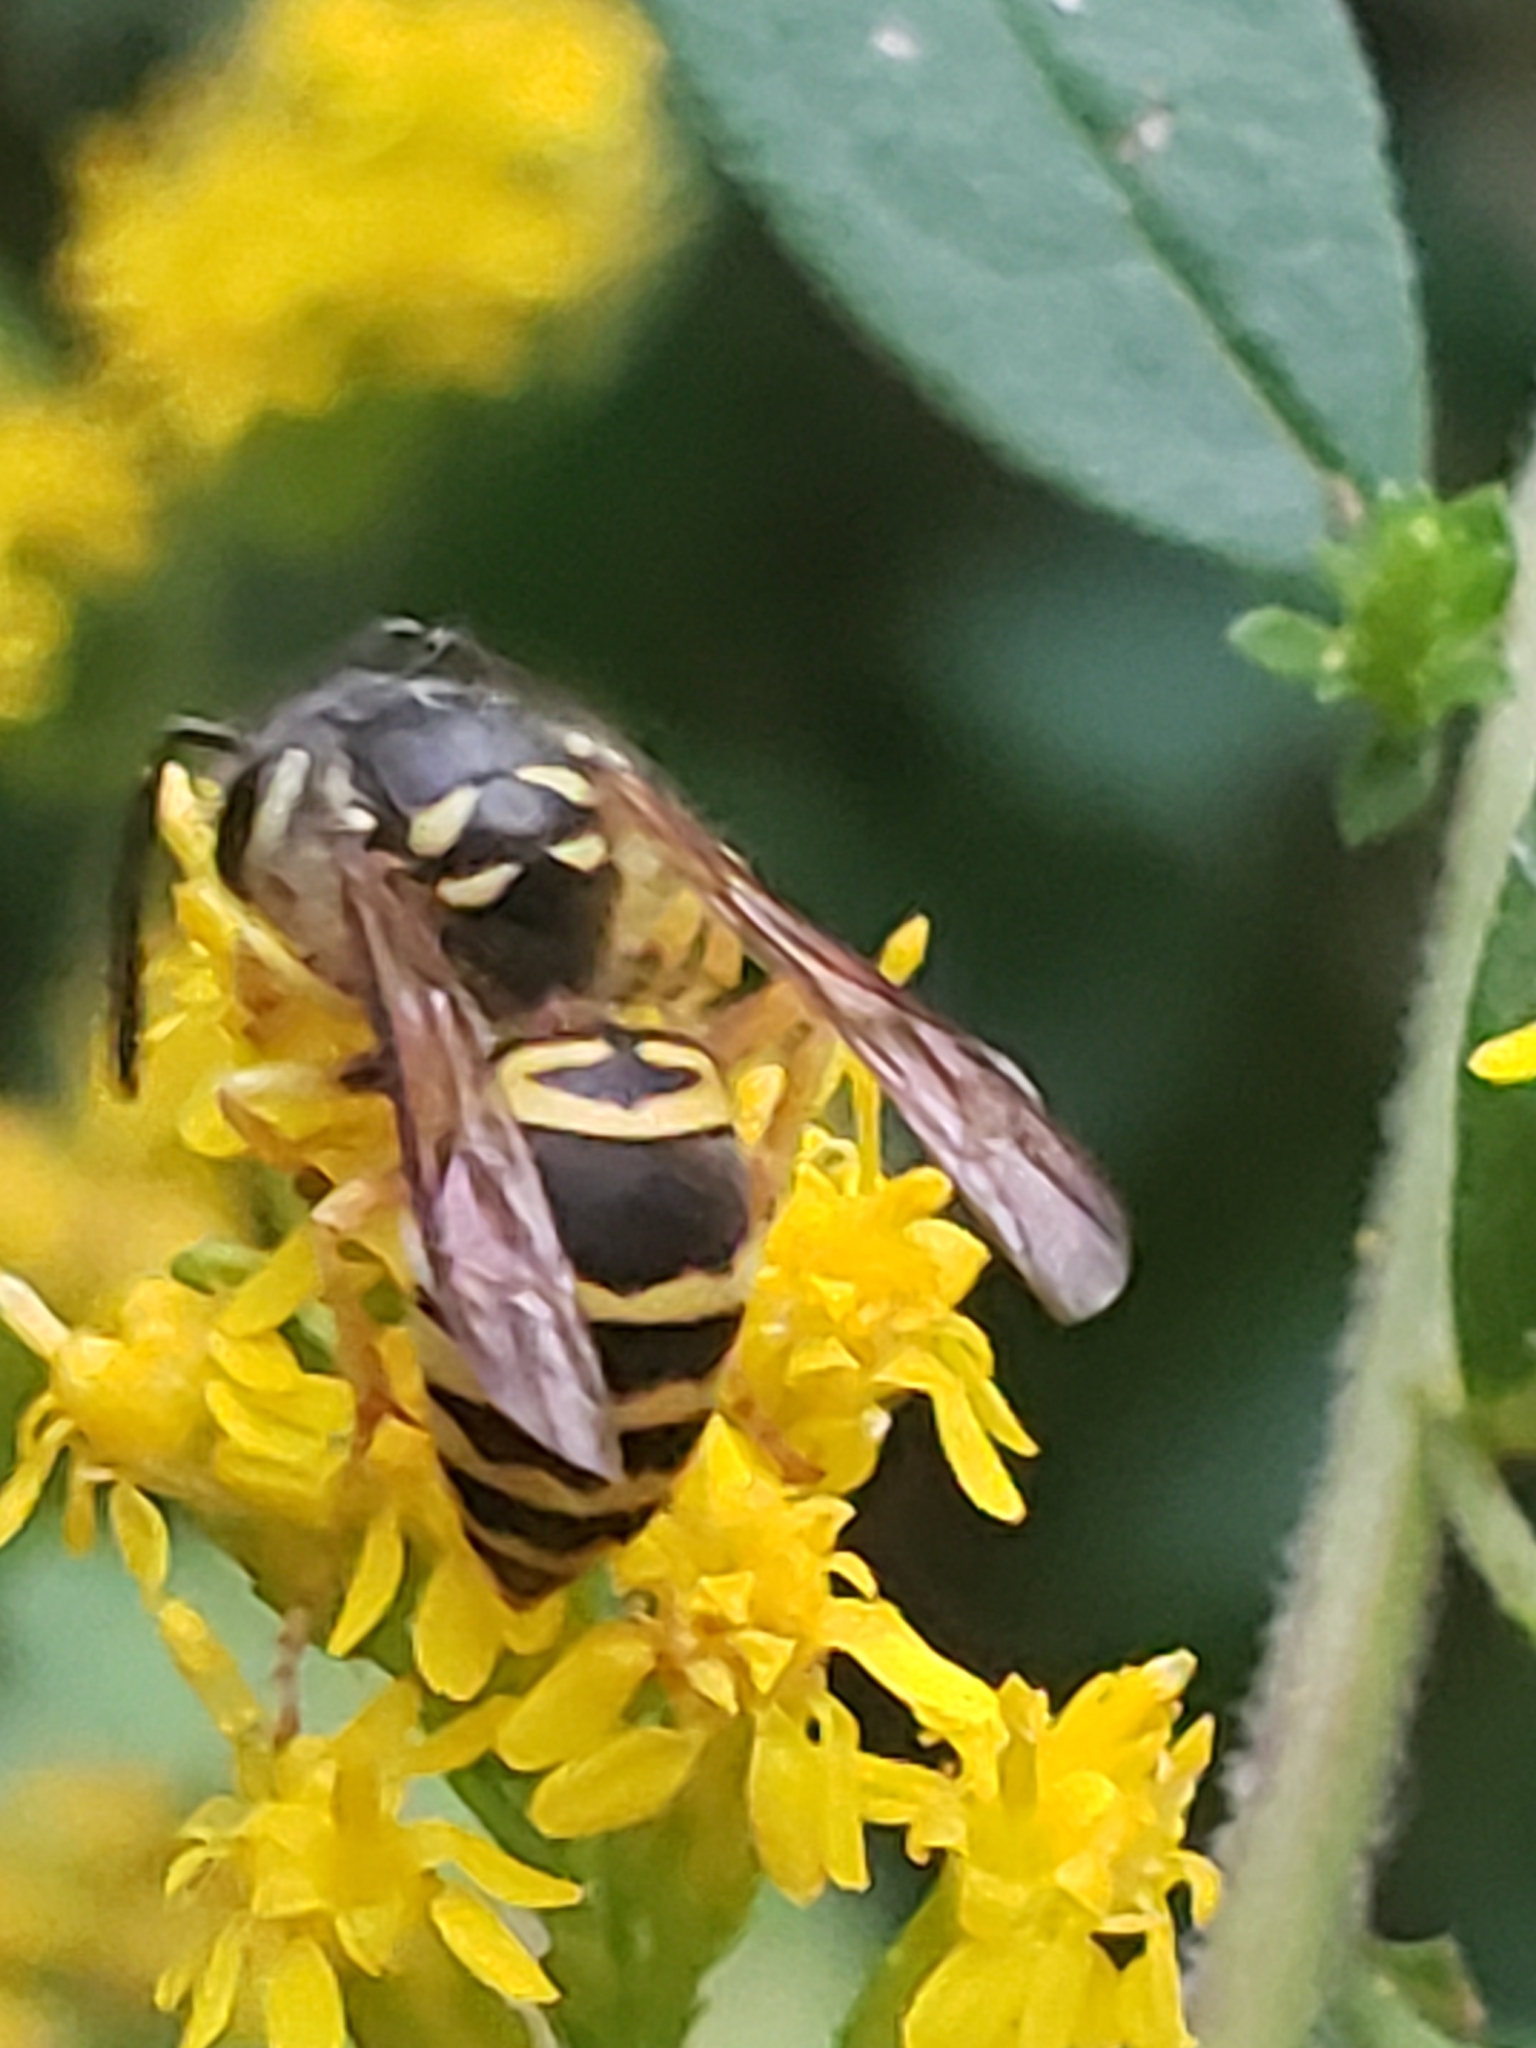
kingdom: Animalia
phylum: Arthropoda
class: Insecta
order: Hymenoptera
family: Vespidae
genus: Vespula
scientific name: Vespula maculifrons
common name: Eastern yellowjacket
